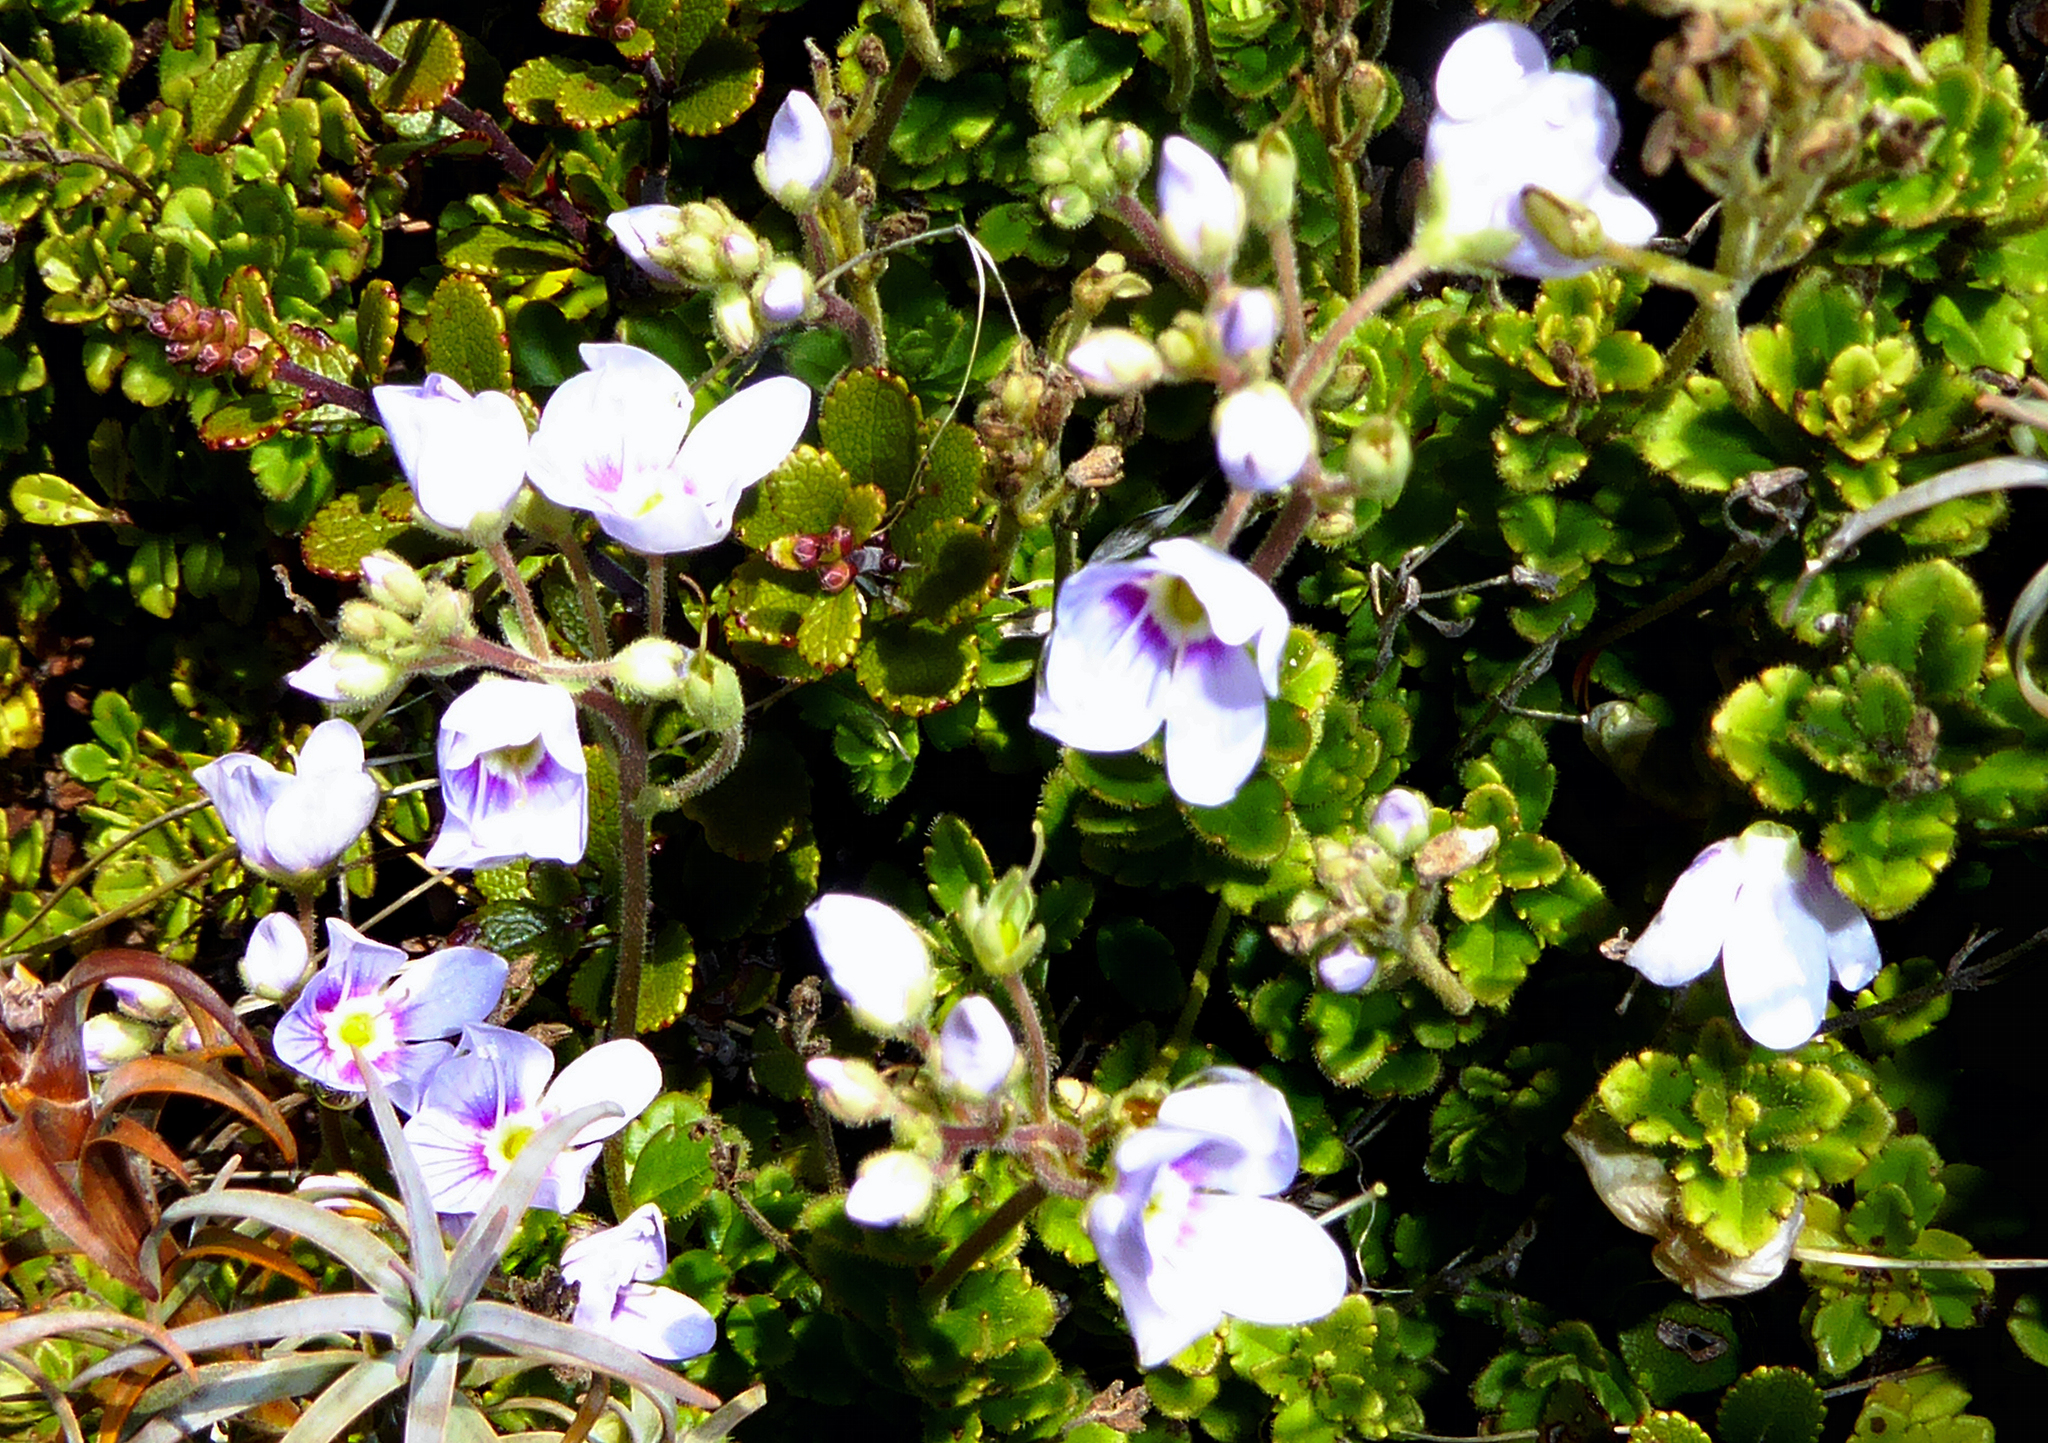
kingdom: Plantae
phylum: Tracheophyta
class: Magnoliopsida
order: Lamiales
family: Plantaginaceae
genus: Veronica
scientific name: Veronica hookeriana
